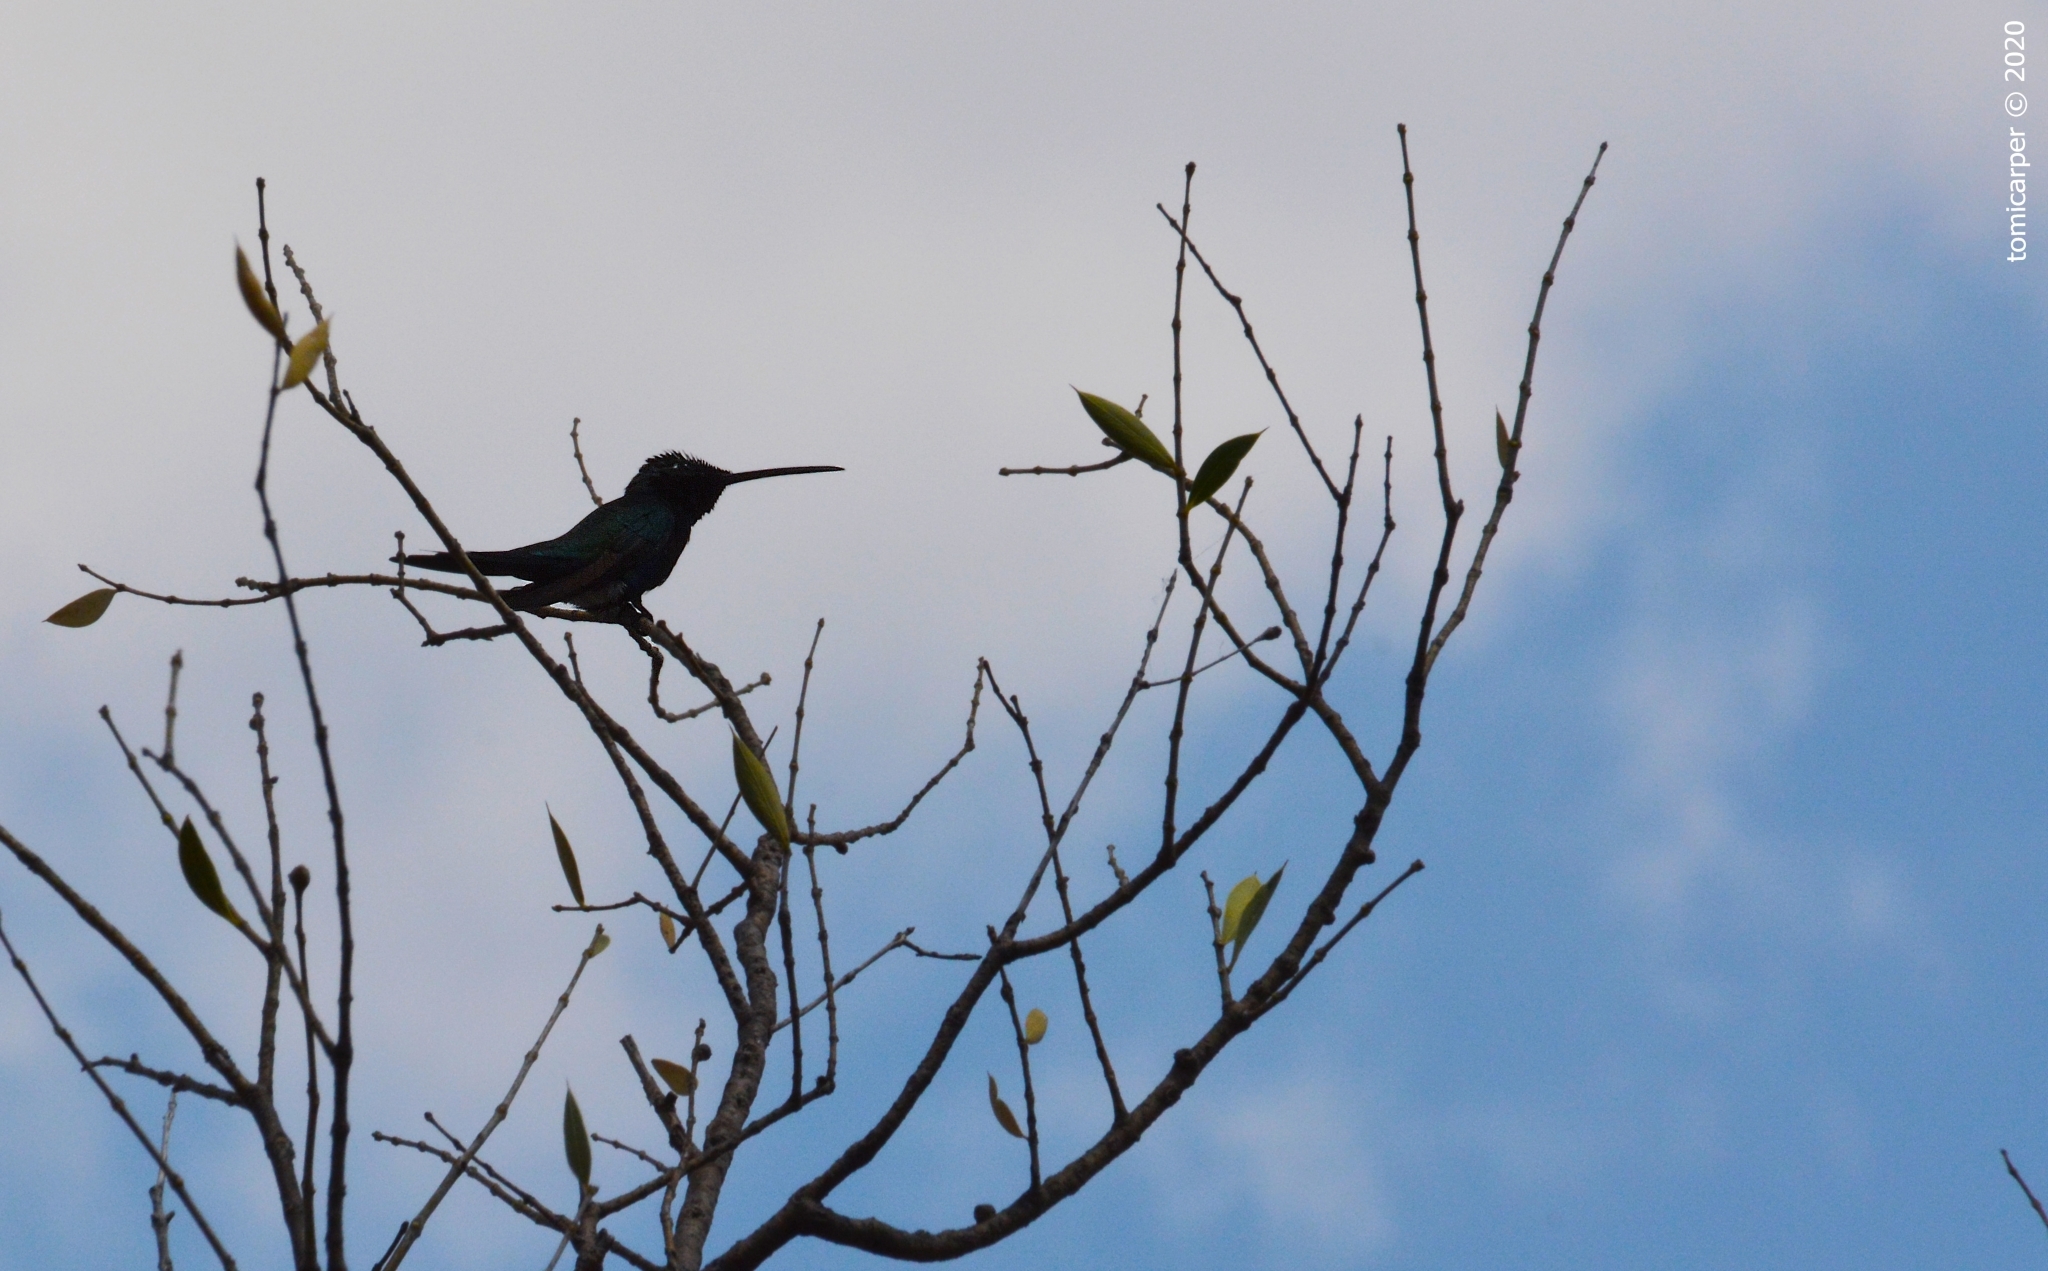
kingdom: Animalia
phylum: Chordata
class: Aves
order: Apodiformes
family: Trochilidae
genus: Heliomaster
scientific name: Heliomaster furcifer
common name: Blue-tufted starthroat
